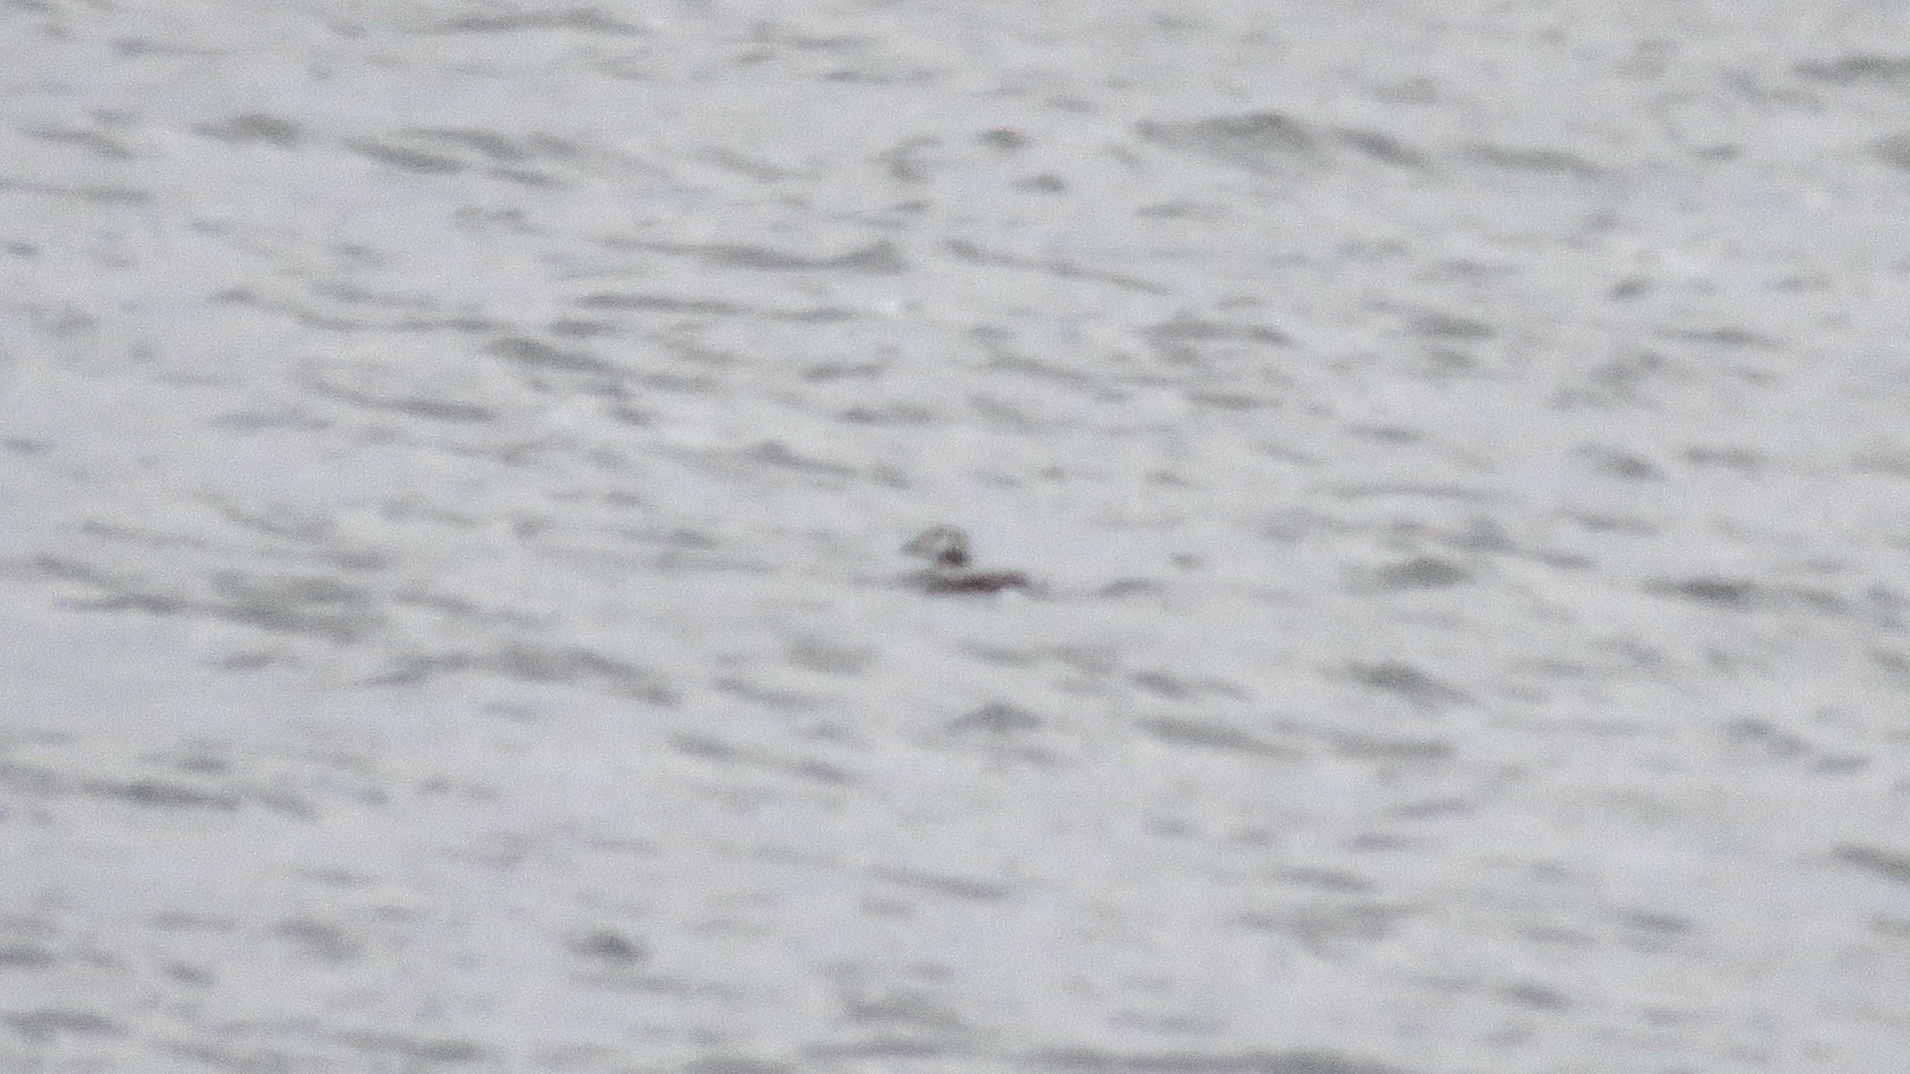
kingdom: Animalia
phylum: Chordata
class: Aves
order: Anseriformes
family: Anatidae
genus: Clangula
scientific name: Clangula hyemalis
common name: Long-tailed duck
